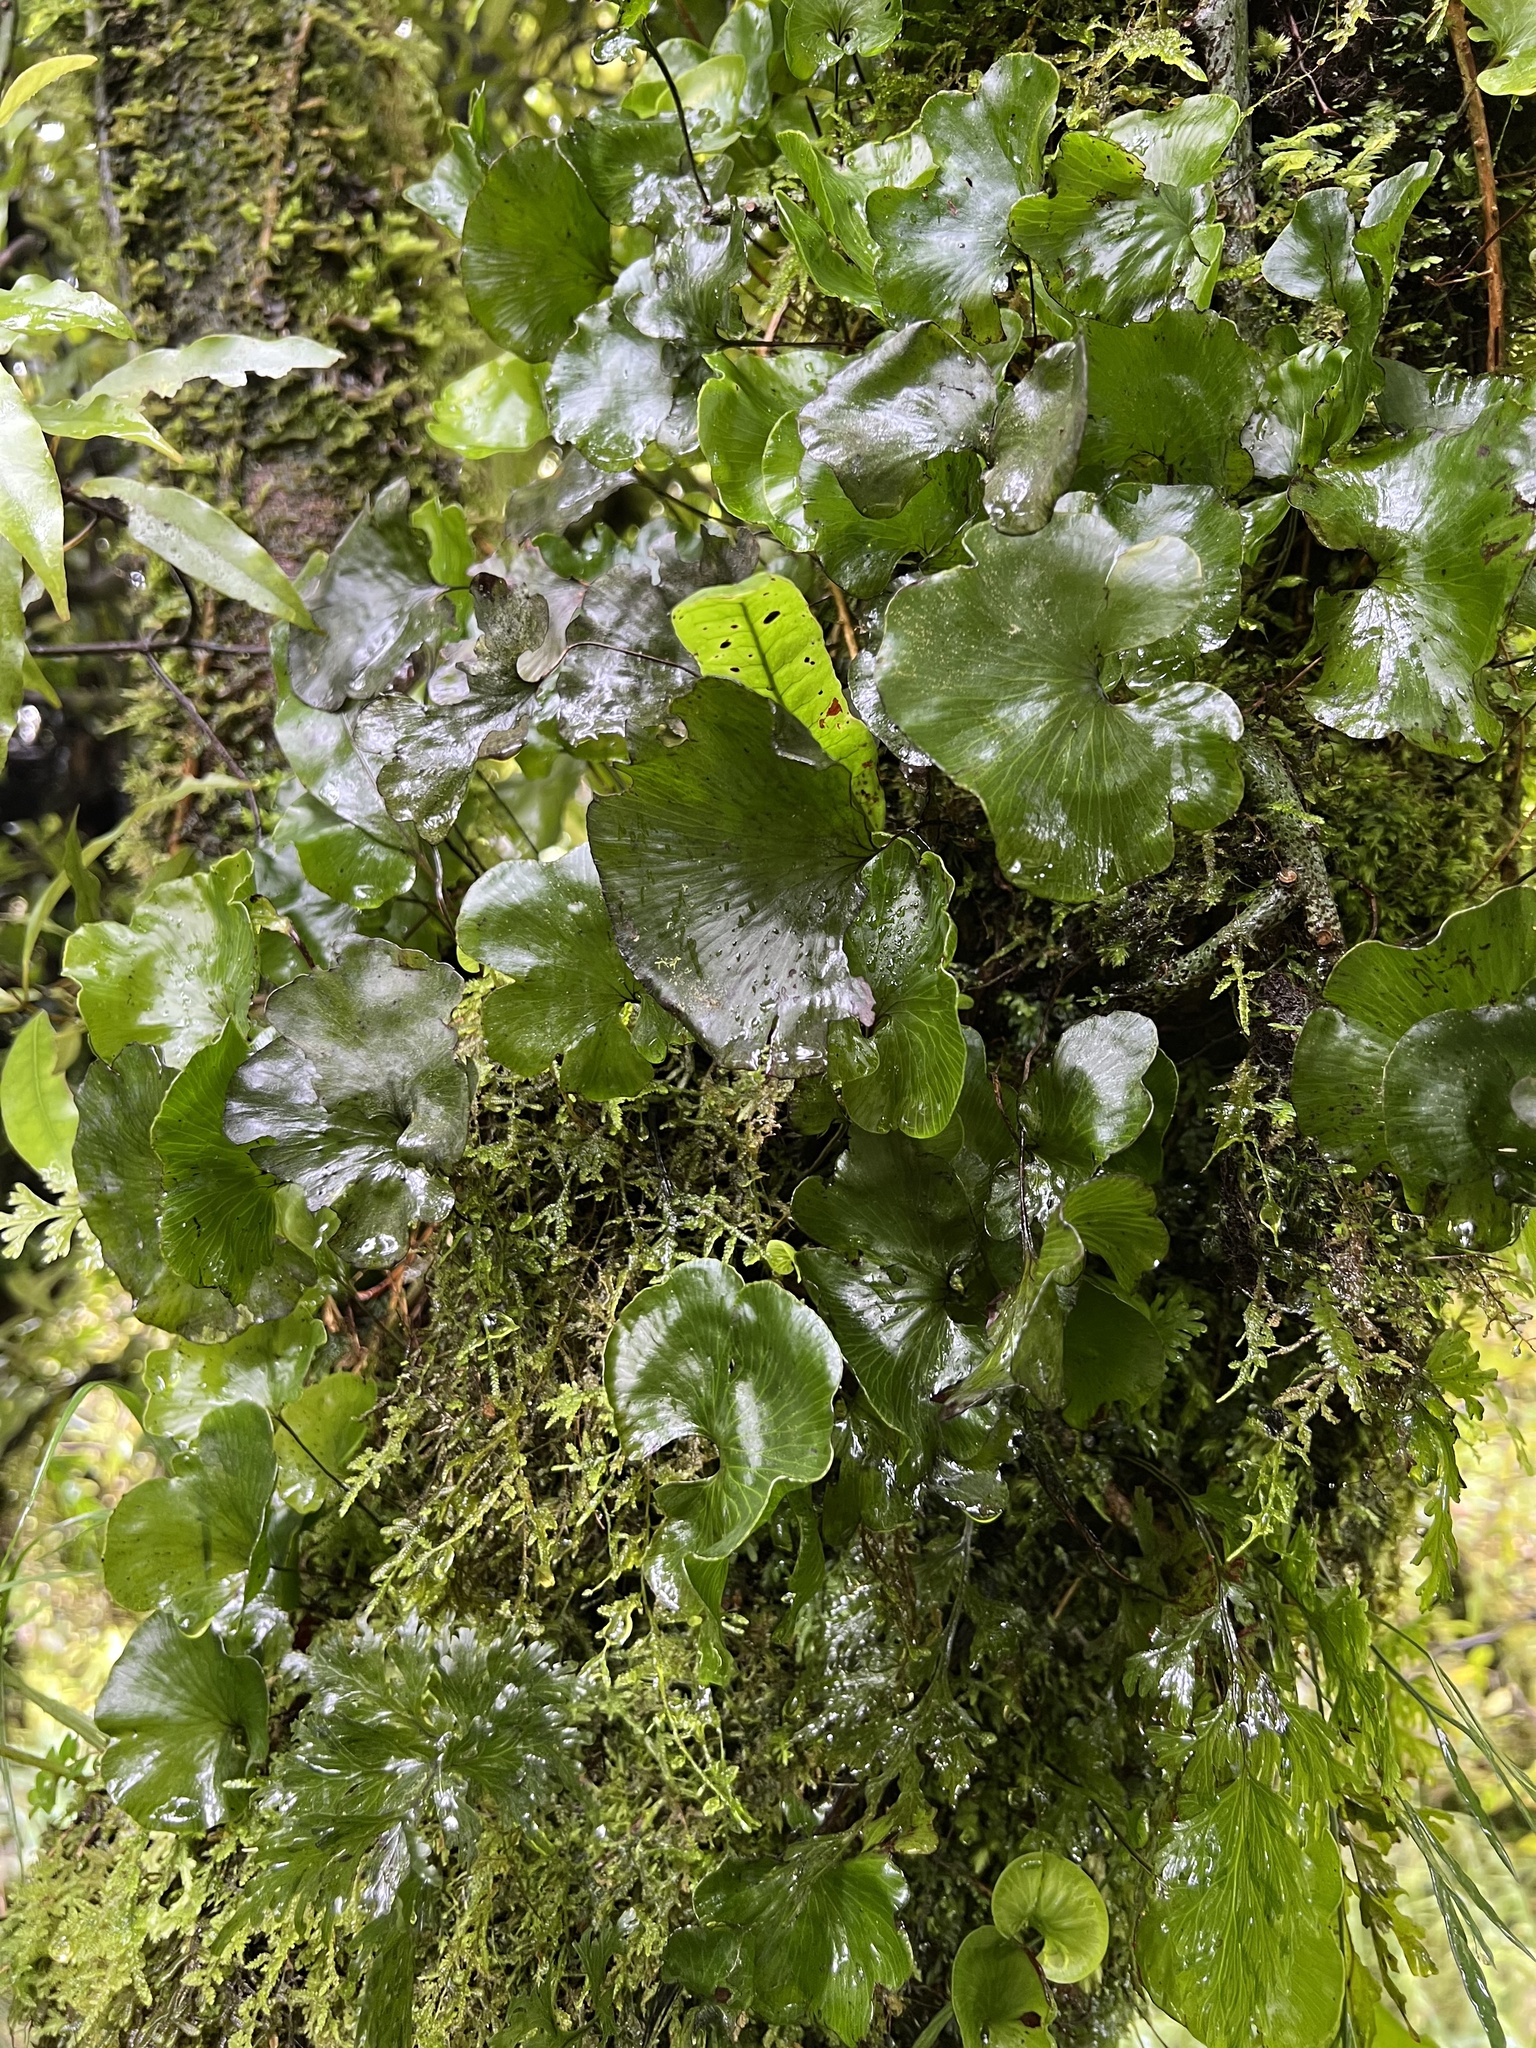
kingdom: Plantae
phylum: Tracheophyta
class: Polypodiopsida
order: Hymenophyllales
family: Hymenophyllaceae
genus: Hymenophyllum
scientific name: Hymenophyllum nephrophyllum
